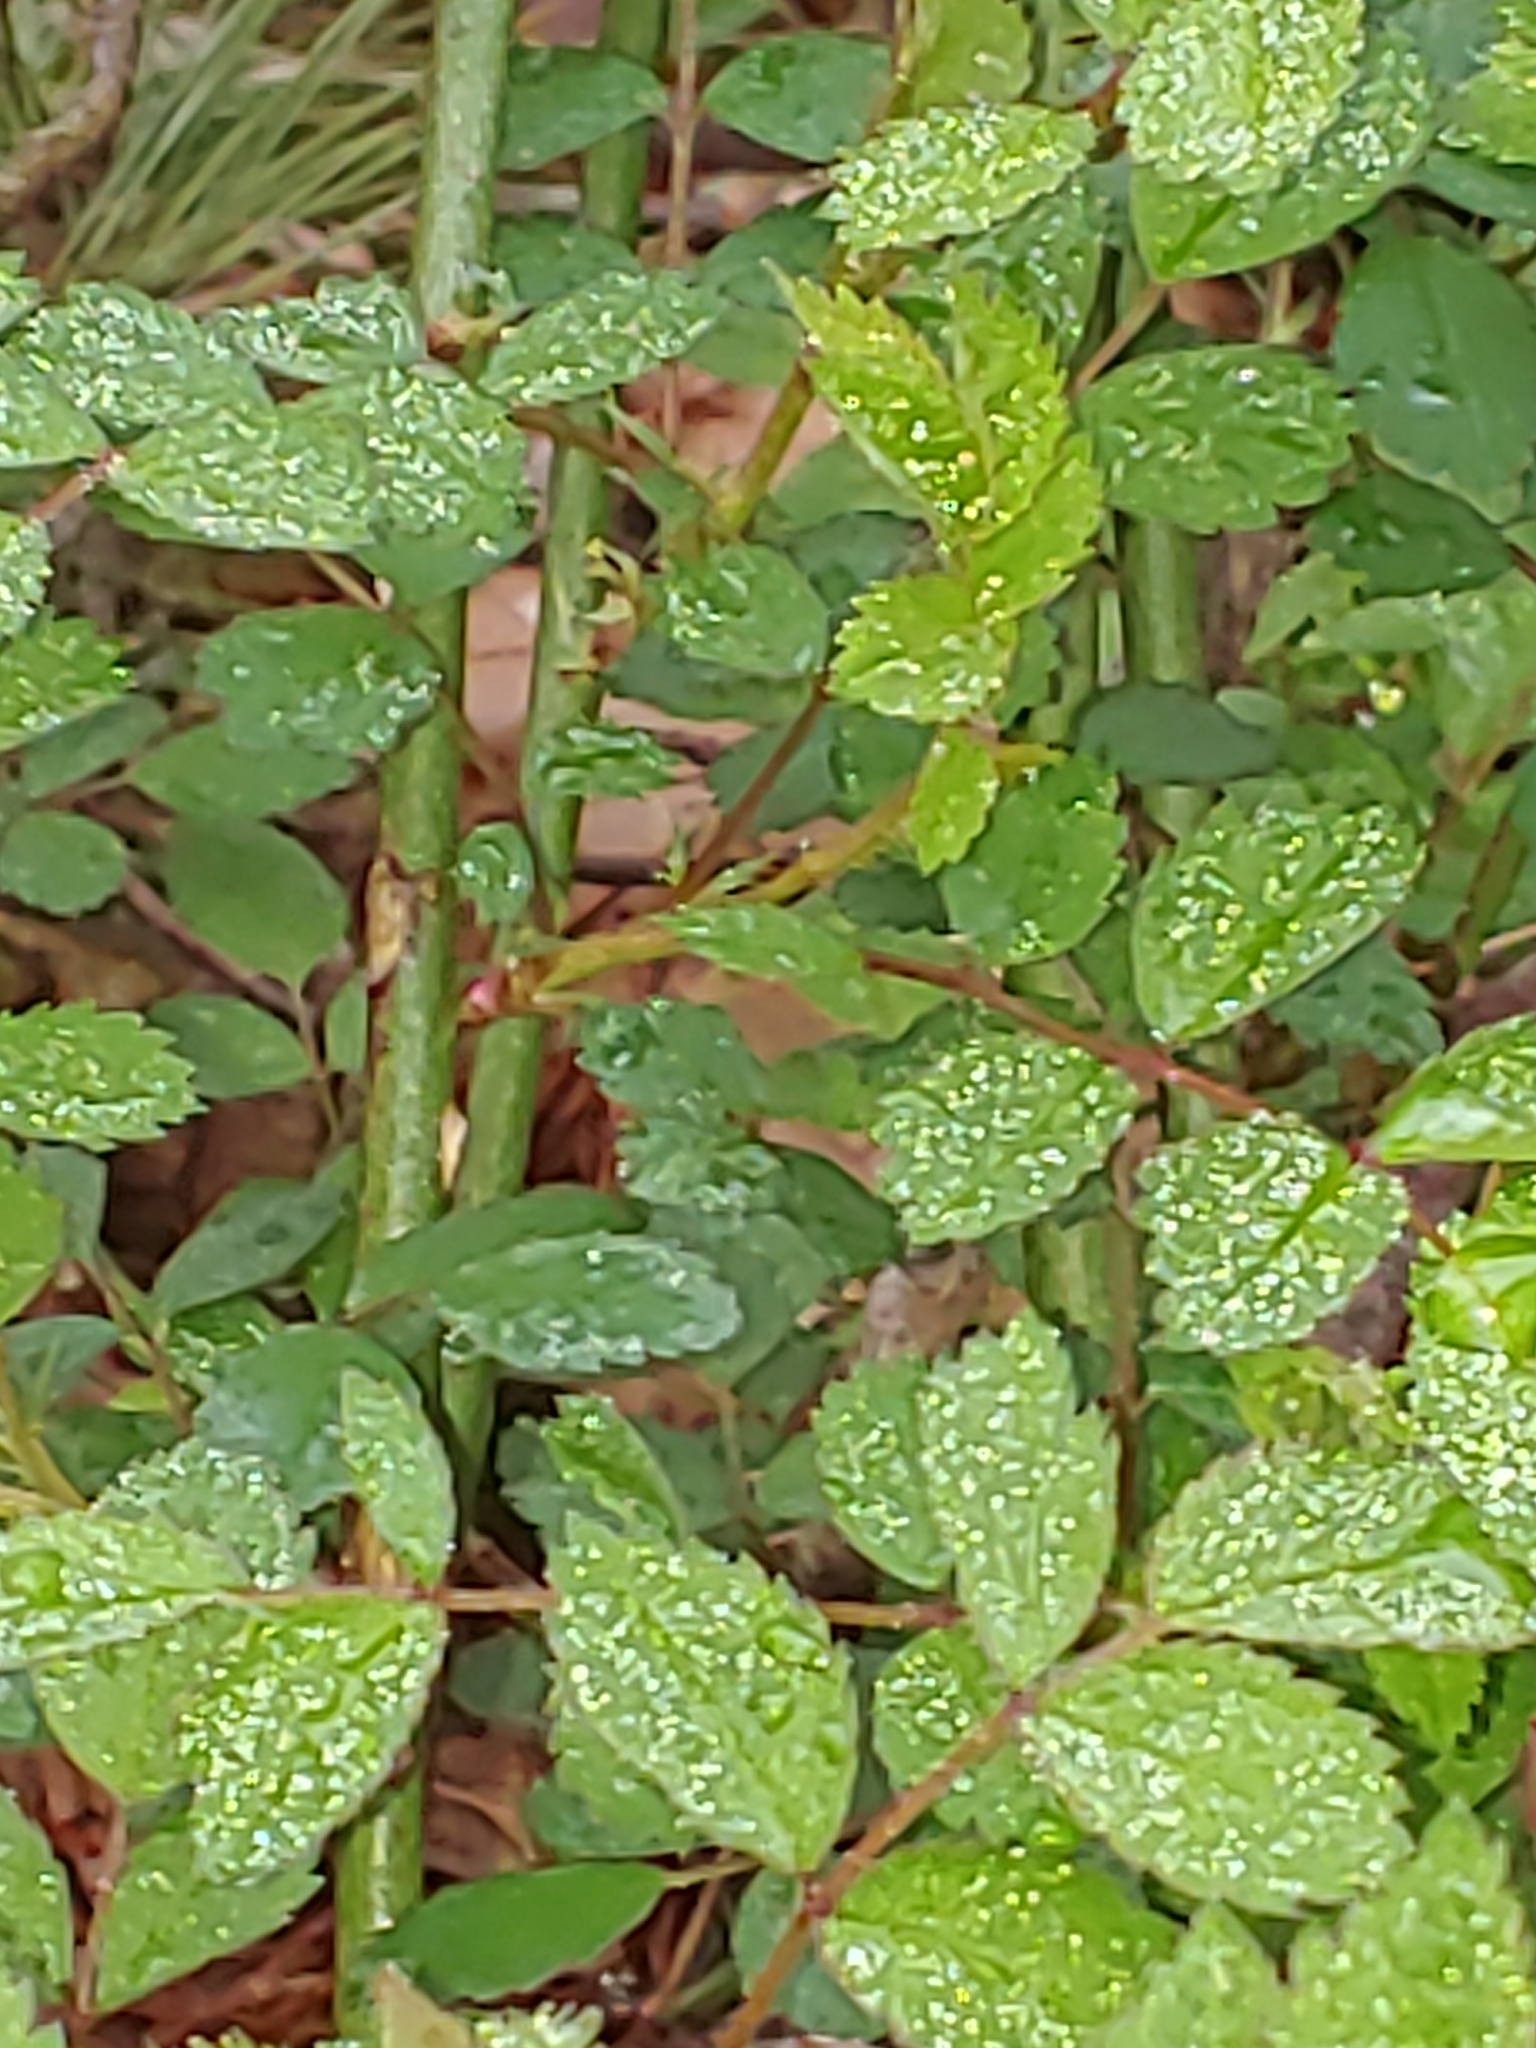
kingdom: Plantae
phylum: Tracheophyta
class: Magnoliopsida
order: Rosales
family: Rosaceae
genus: Rosa
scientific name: Rosa multiflora
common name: Multiflora rose
